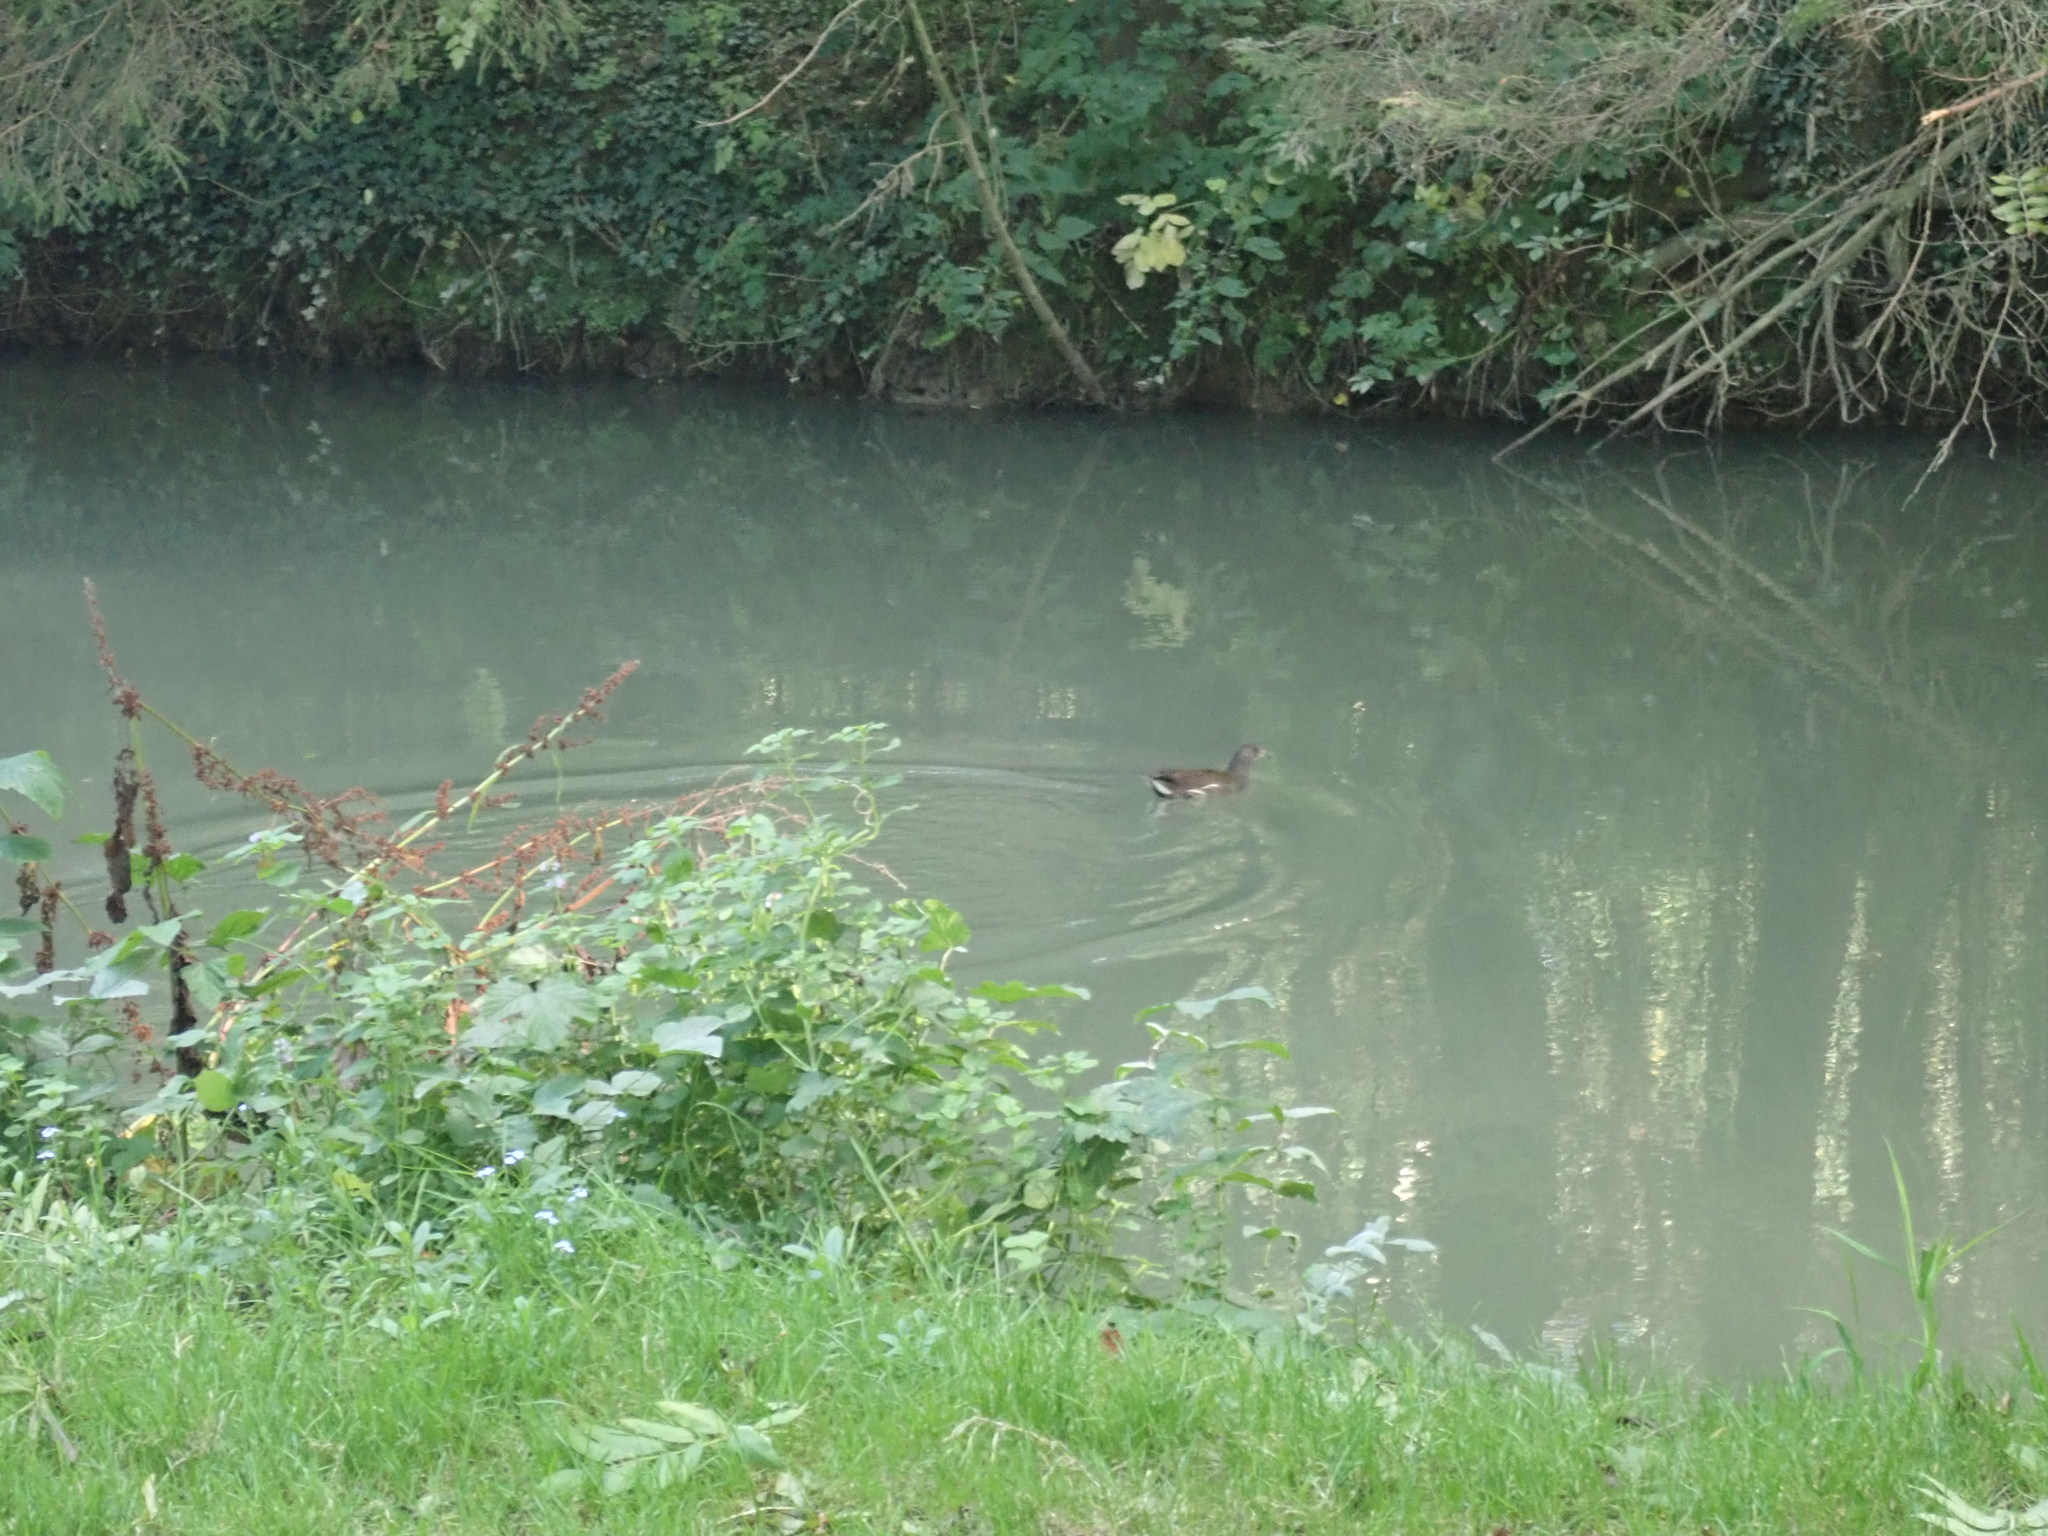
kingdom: Animalia
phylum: Chordata
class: Aves
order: Gruiformes
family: Rallidae
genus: Gallinula
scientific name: Gallinula chloropus
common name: Common moorhen
